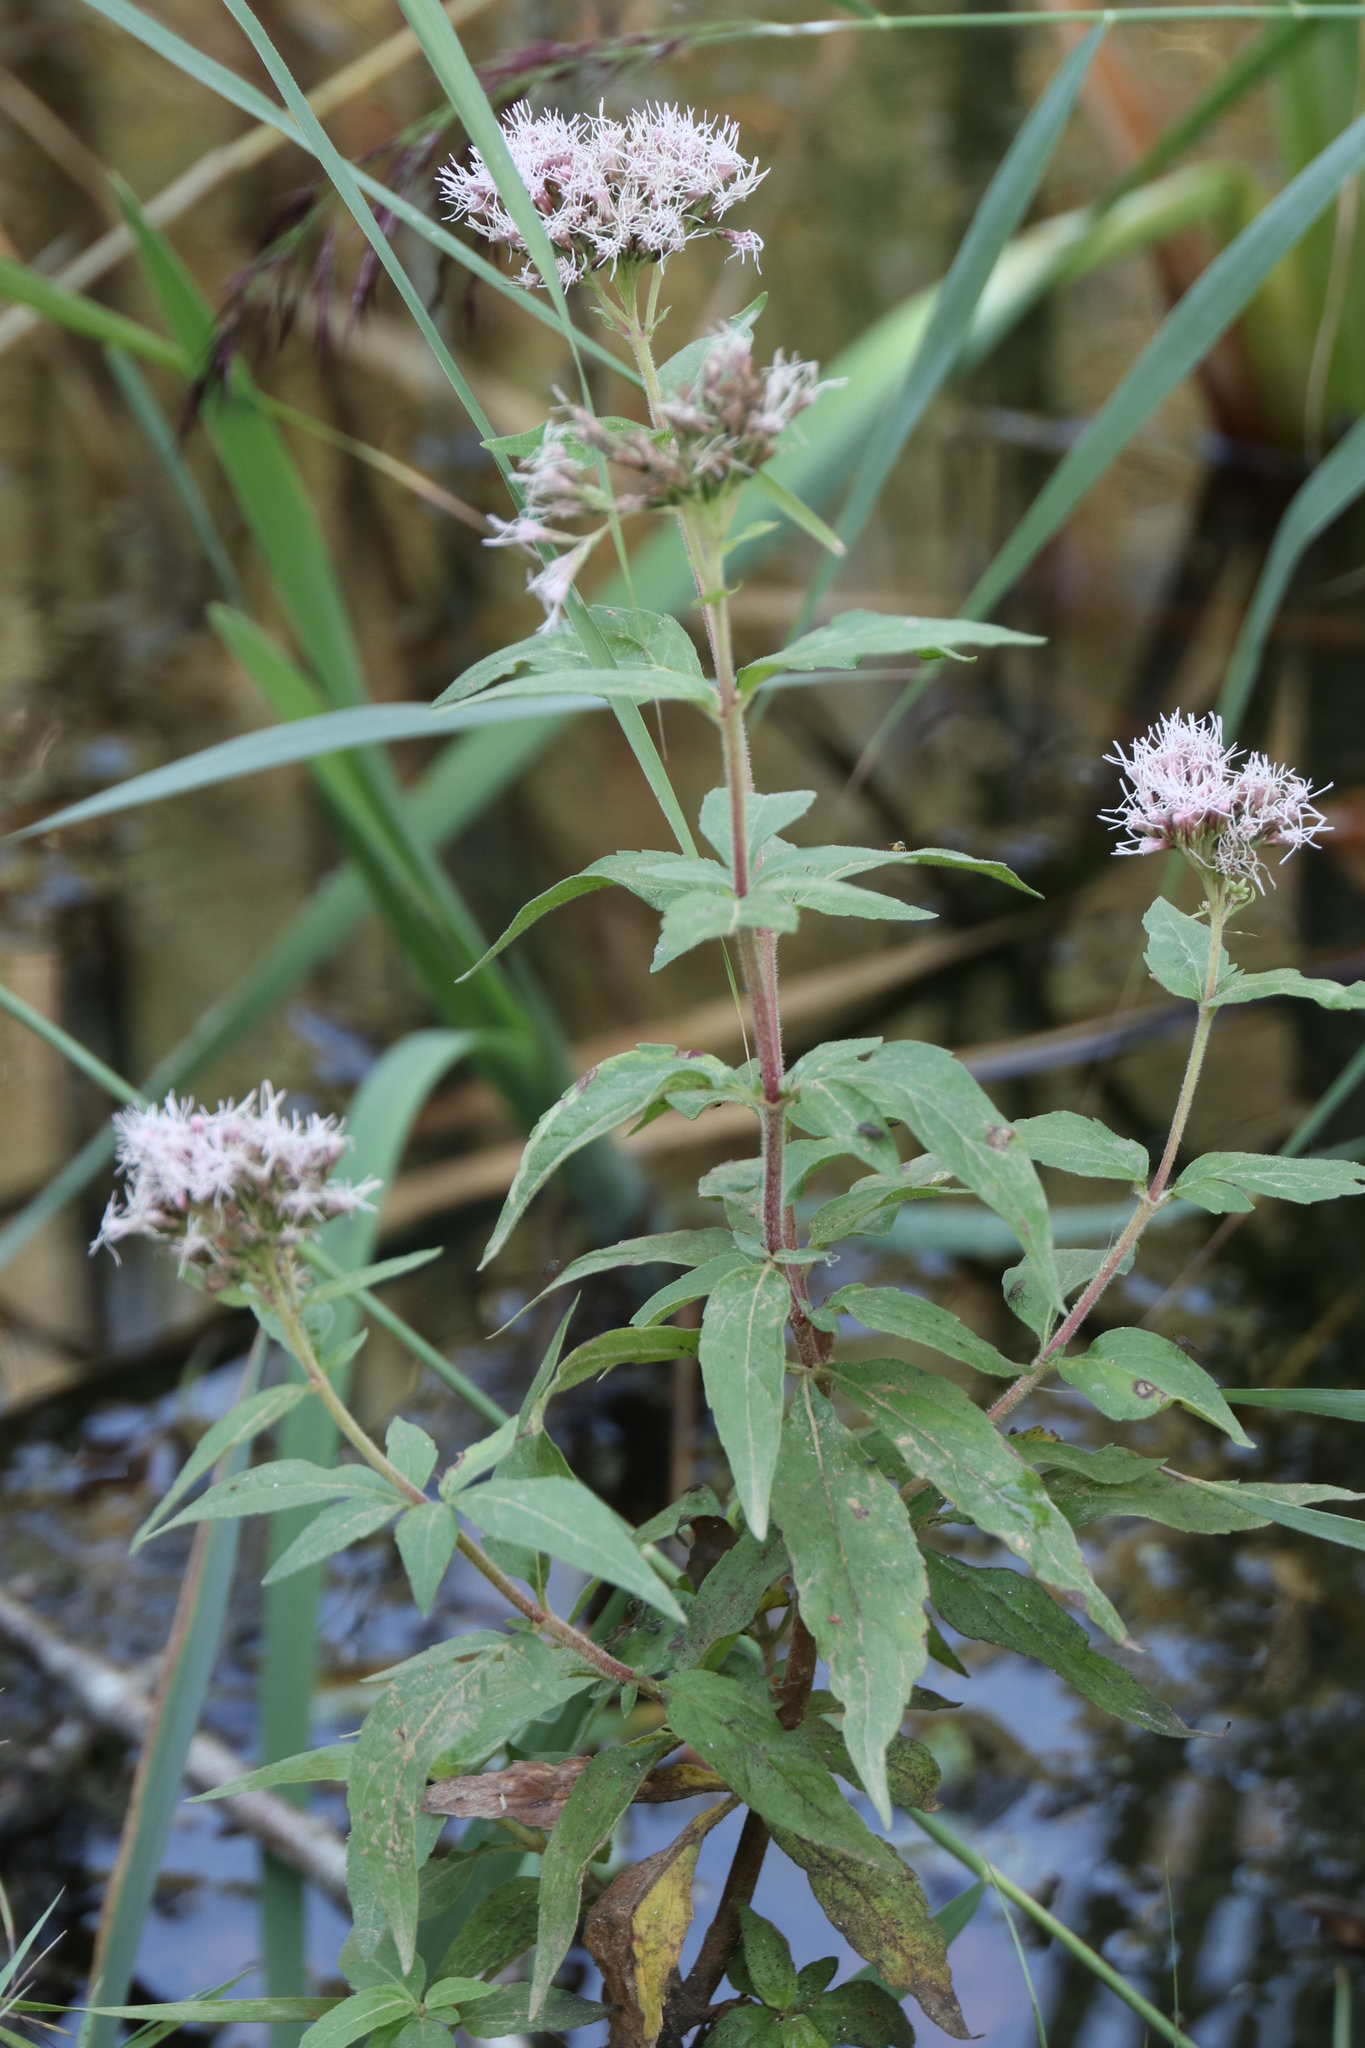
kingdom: Plantae
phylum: Tracheophyta
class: Magnoliopsida
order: Asterales
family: Asteraceae
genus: Eupatorium
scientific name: Eupatorium cannabinum
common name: Hemp-agrimony
